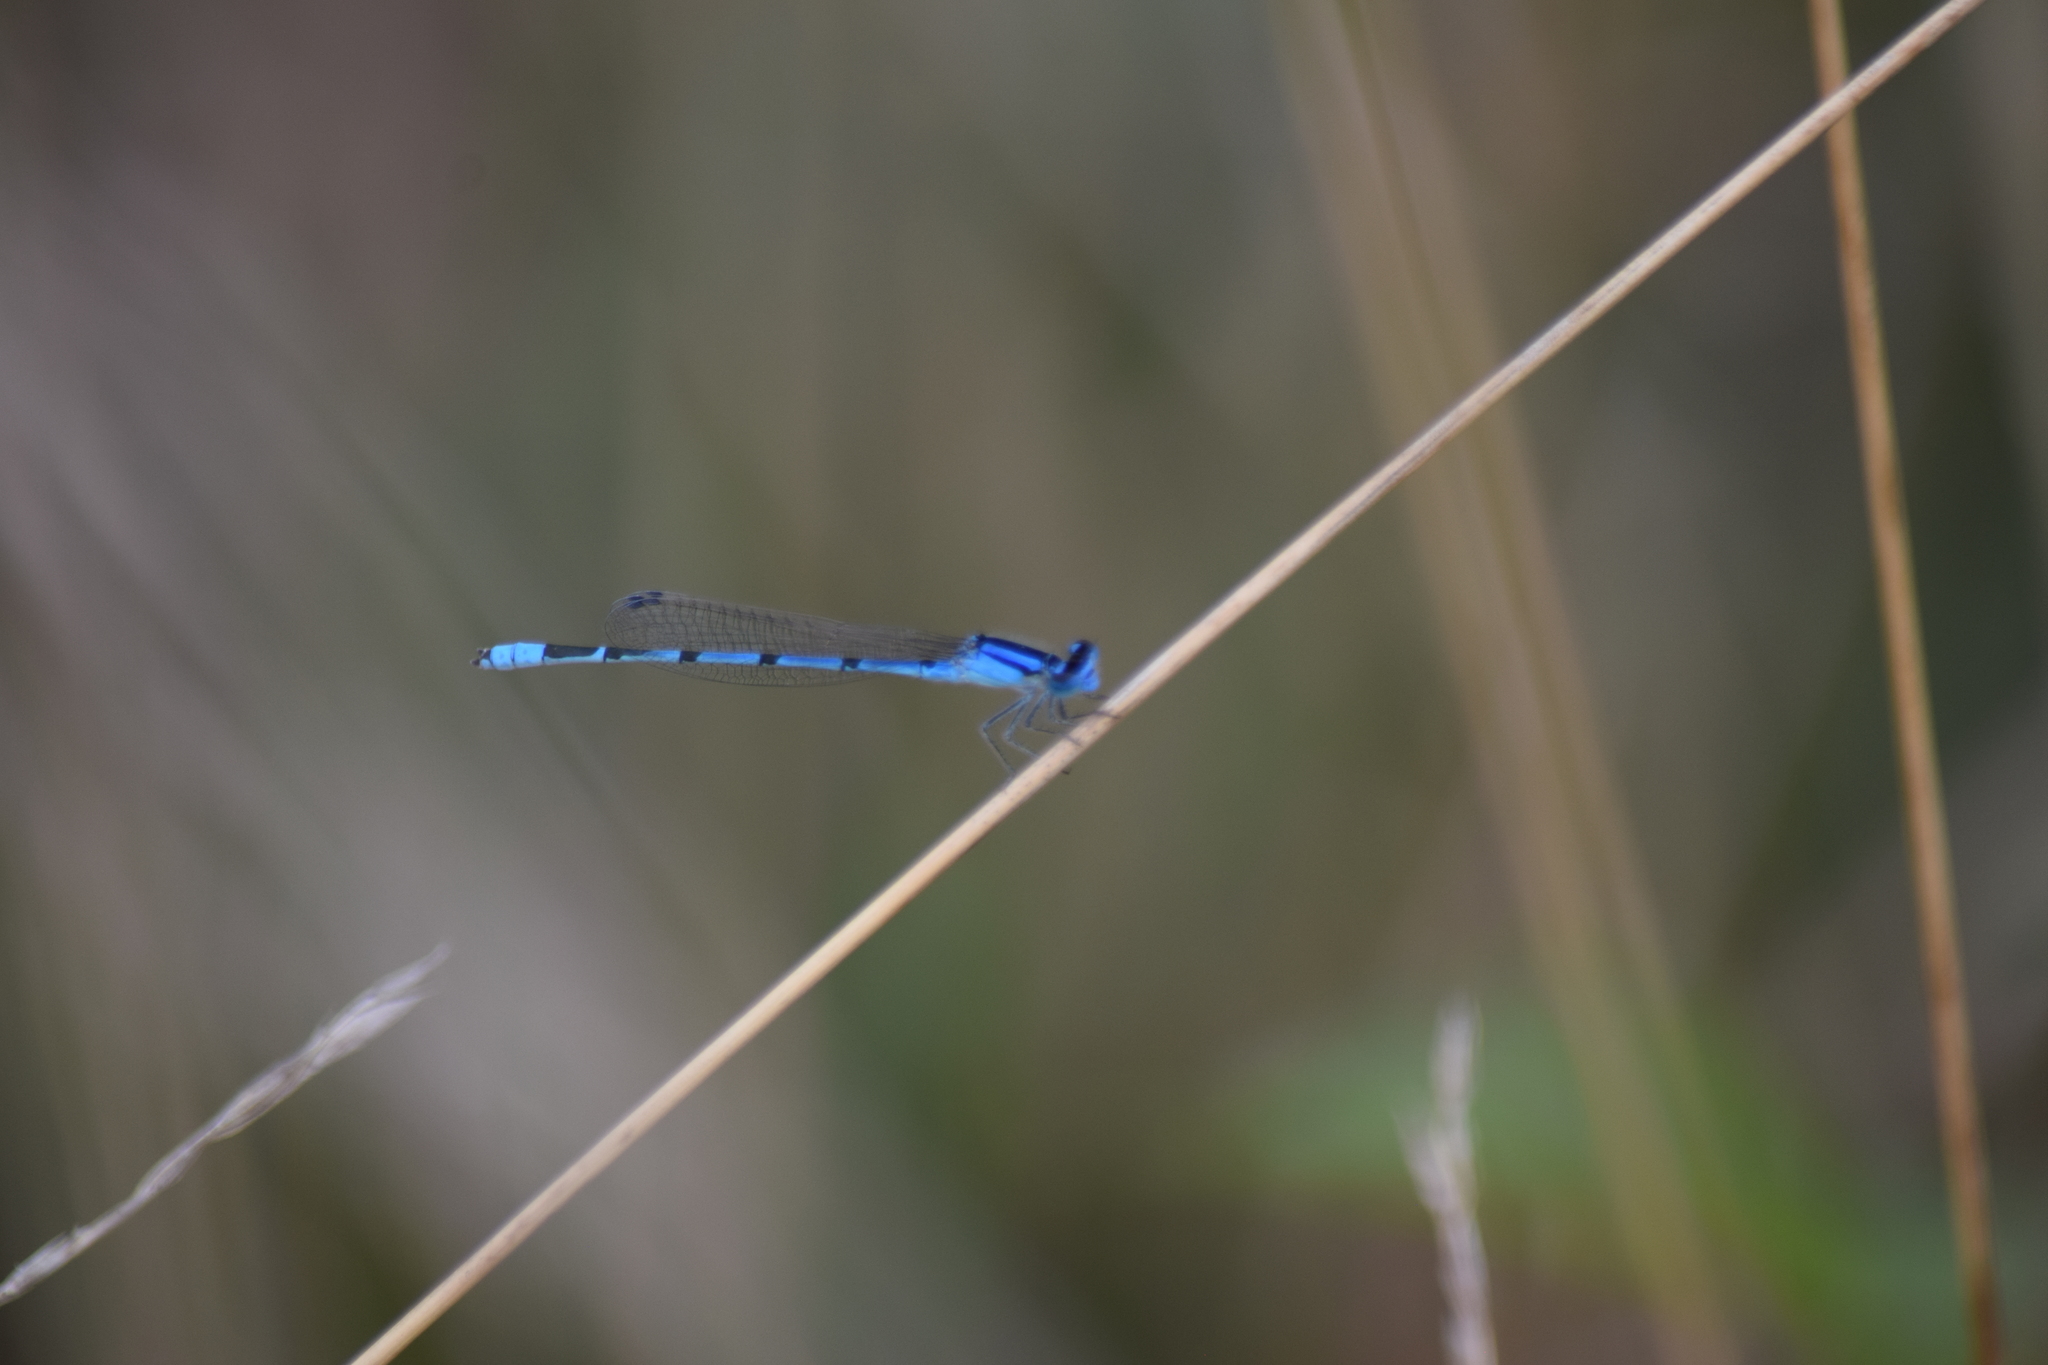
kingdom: Animalia
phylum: Arthropoda
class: Insecta
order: Odonata
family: Coenagrionidae
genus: Enallagma
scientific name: Enallagma civile
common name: Damselfly
